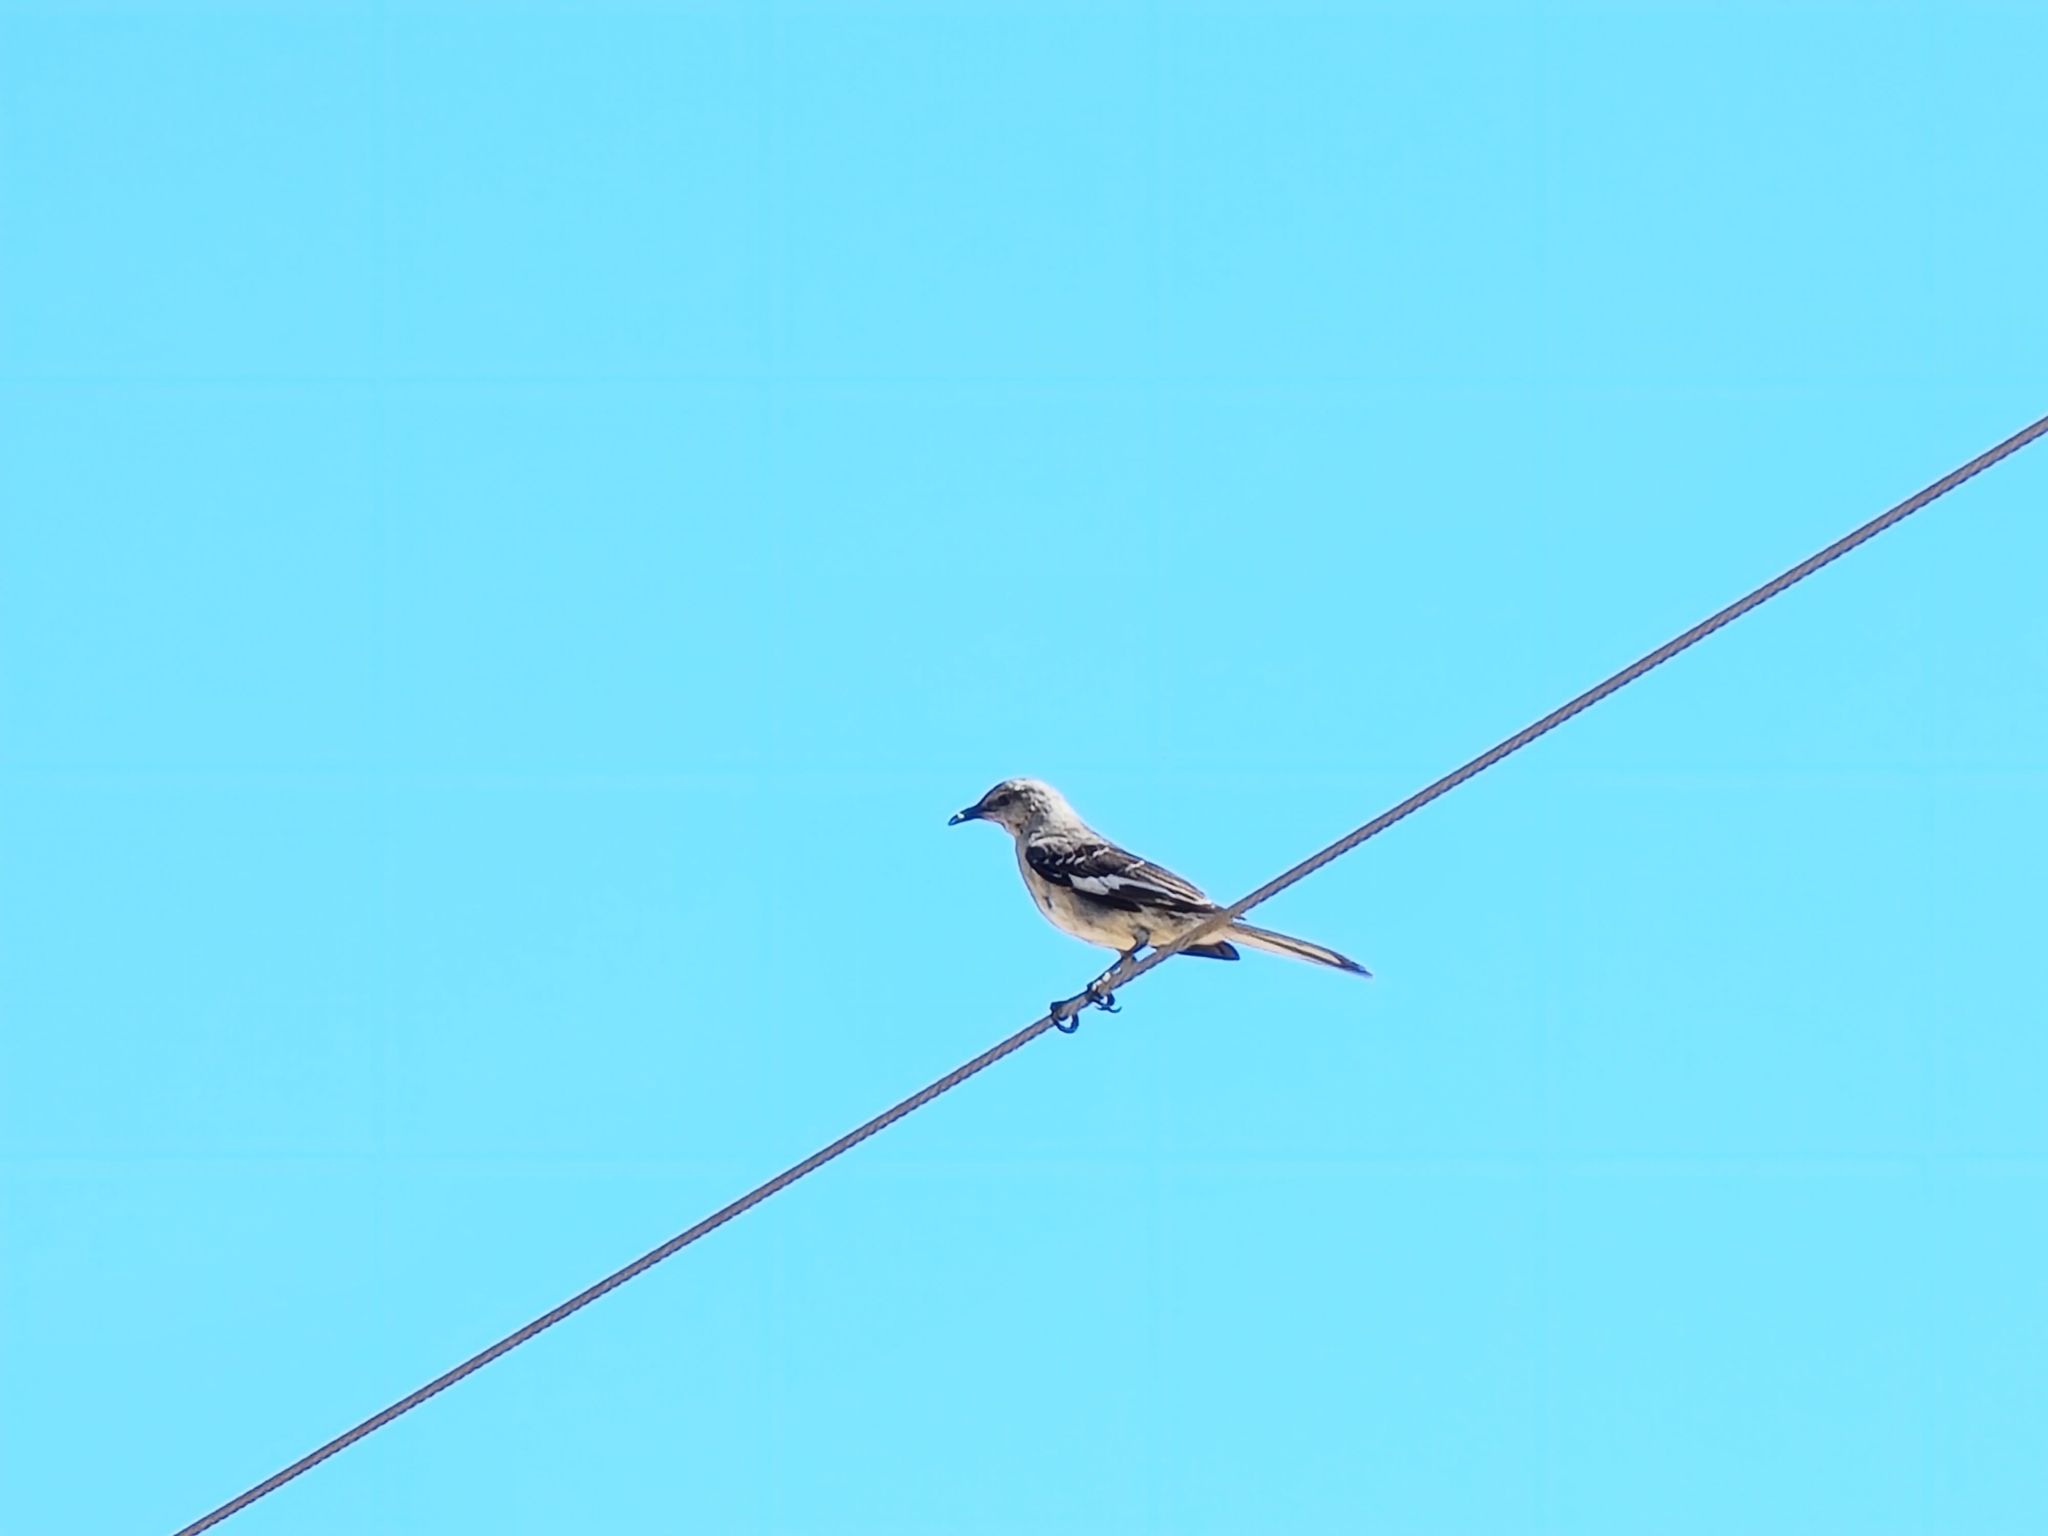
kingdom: Animalia
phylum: Chordata
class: Aves
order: Passeriformes
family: Mimidae
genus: Mimus
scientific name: Mimus polyglottos
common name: Northern mockingbird
